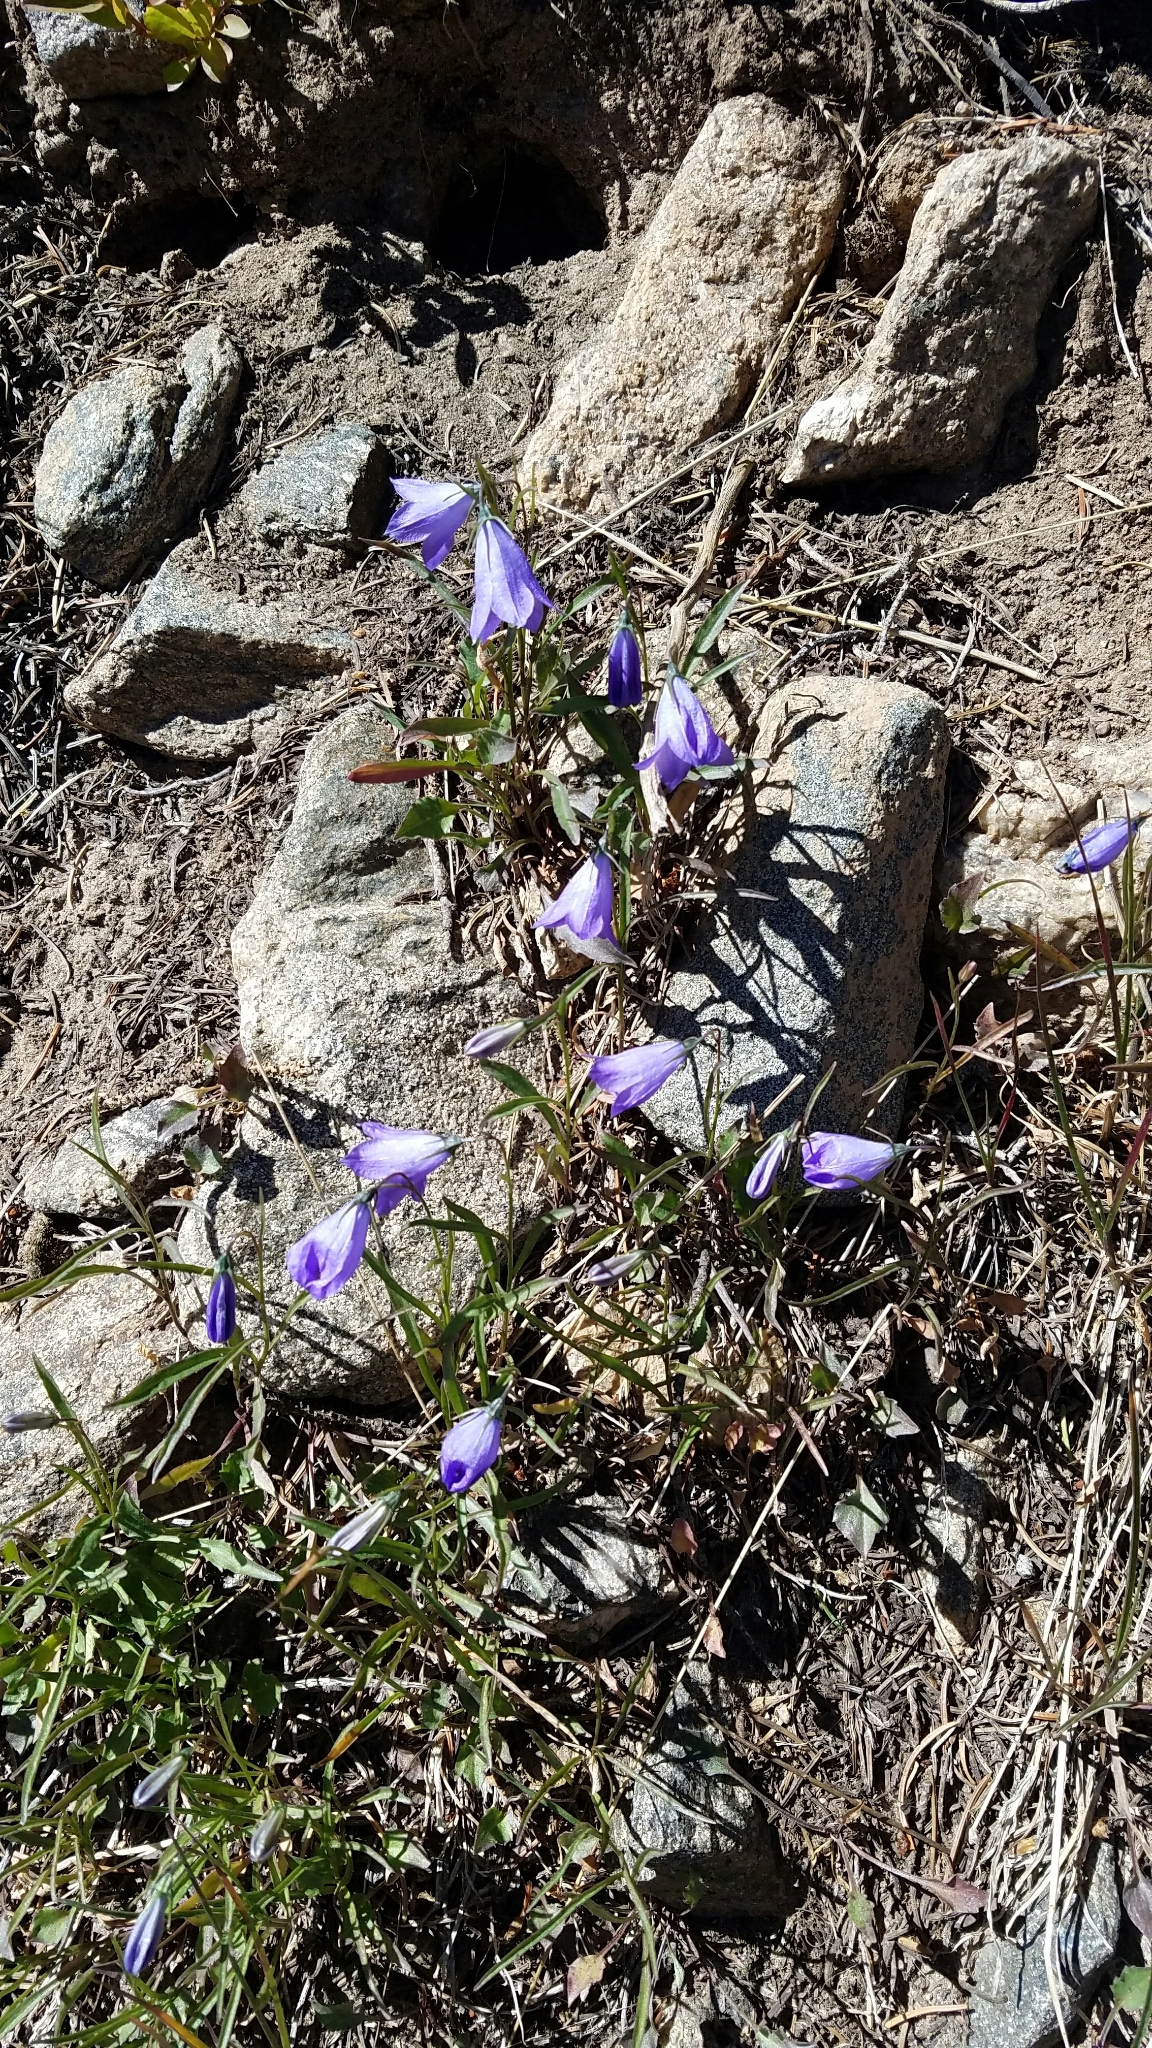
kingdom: Plantae
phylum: Tracheophyta
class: Magnoliopsida
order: Asterales
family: Campanulaceae
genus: Campanula
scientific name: Campanula petiolata
